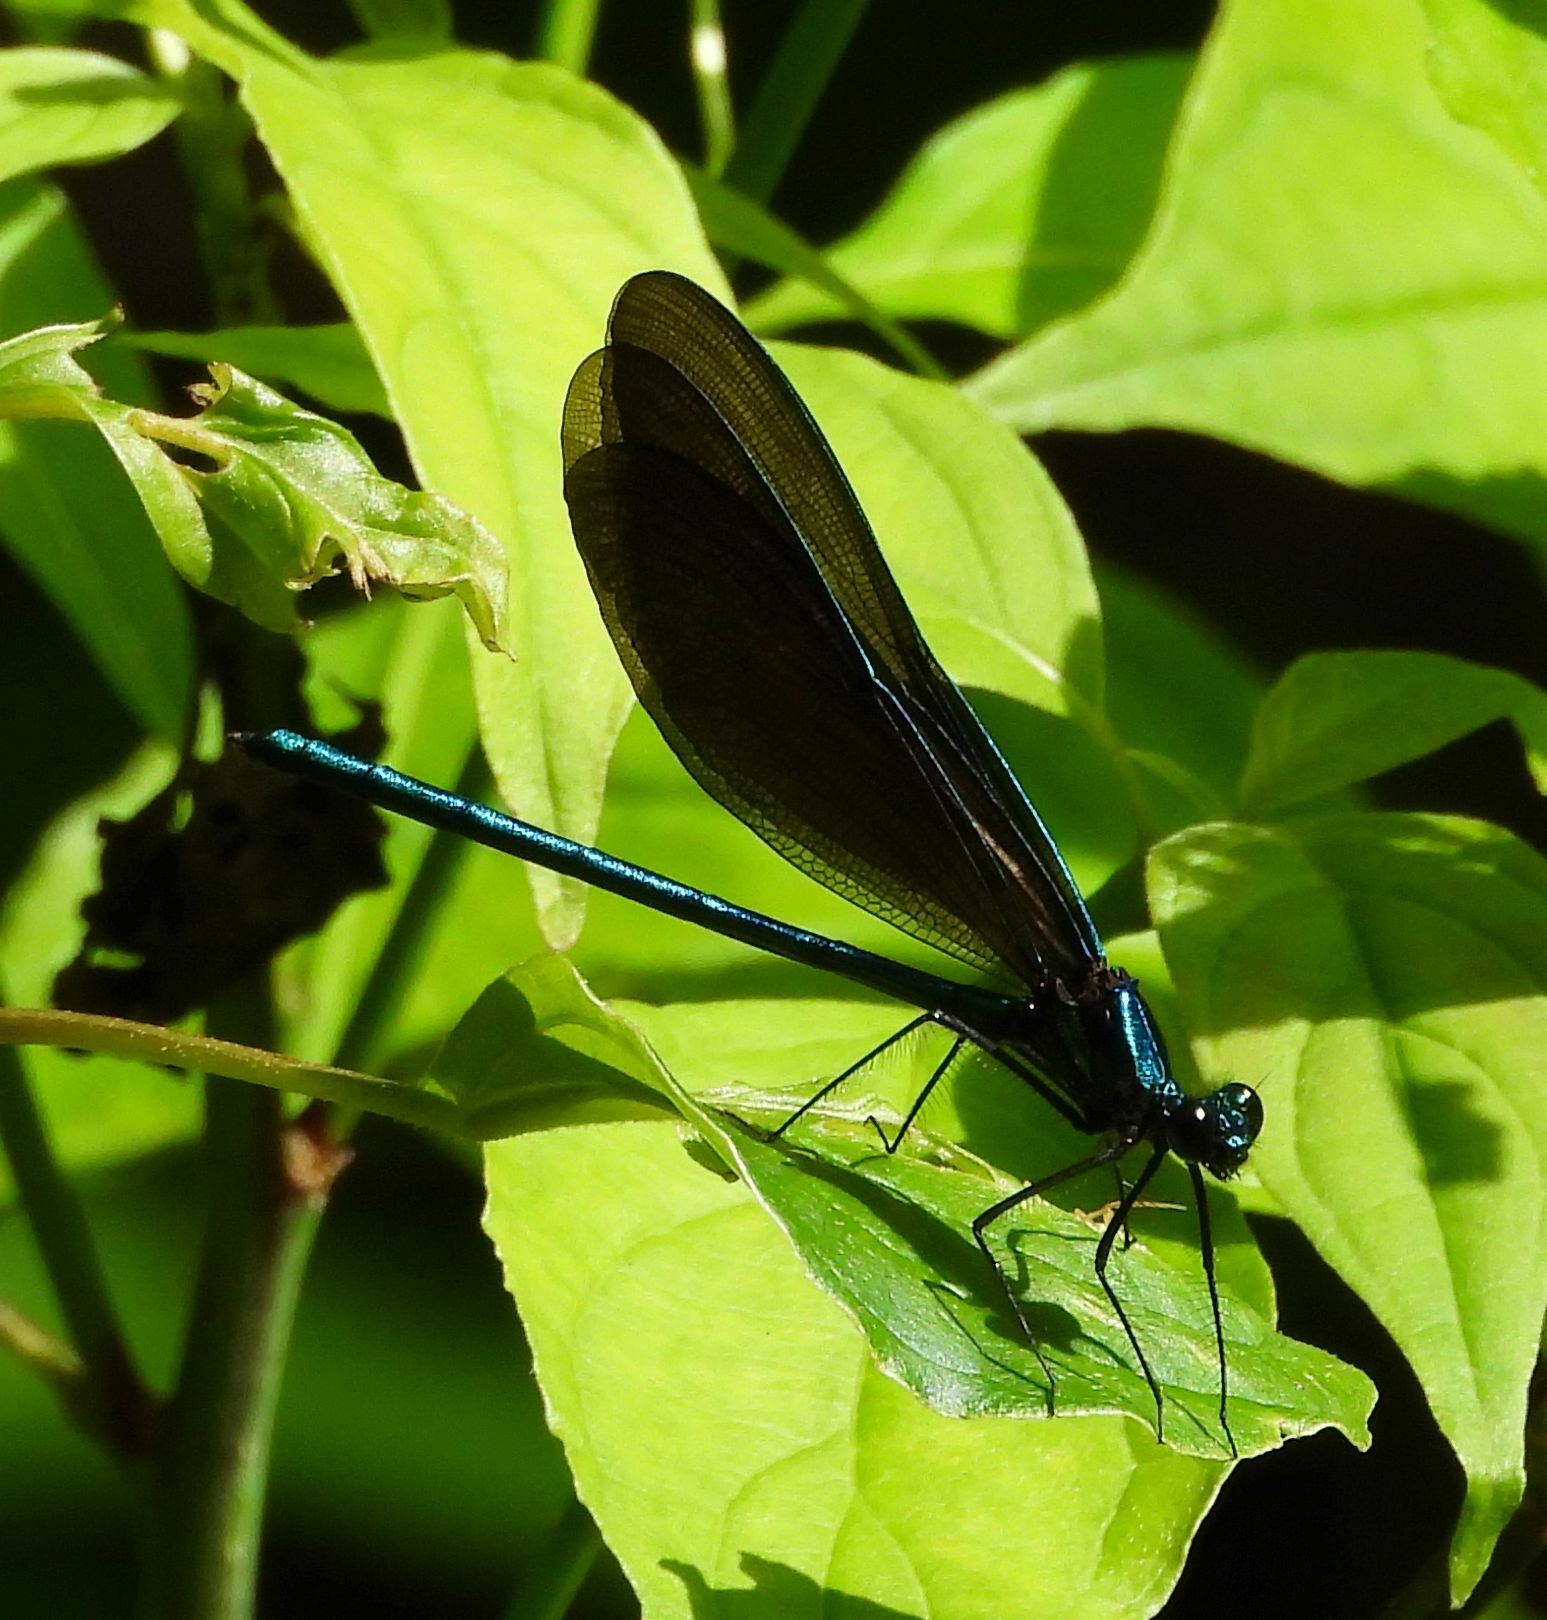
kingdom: Animalia
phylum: Arthropoda
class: Insecta
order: Odonata
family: Calopterygidae
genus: Calopteryx
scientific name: Calopteryx maculata
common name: Ebony jewelwing
